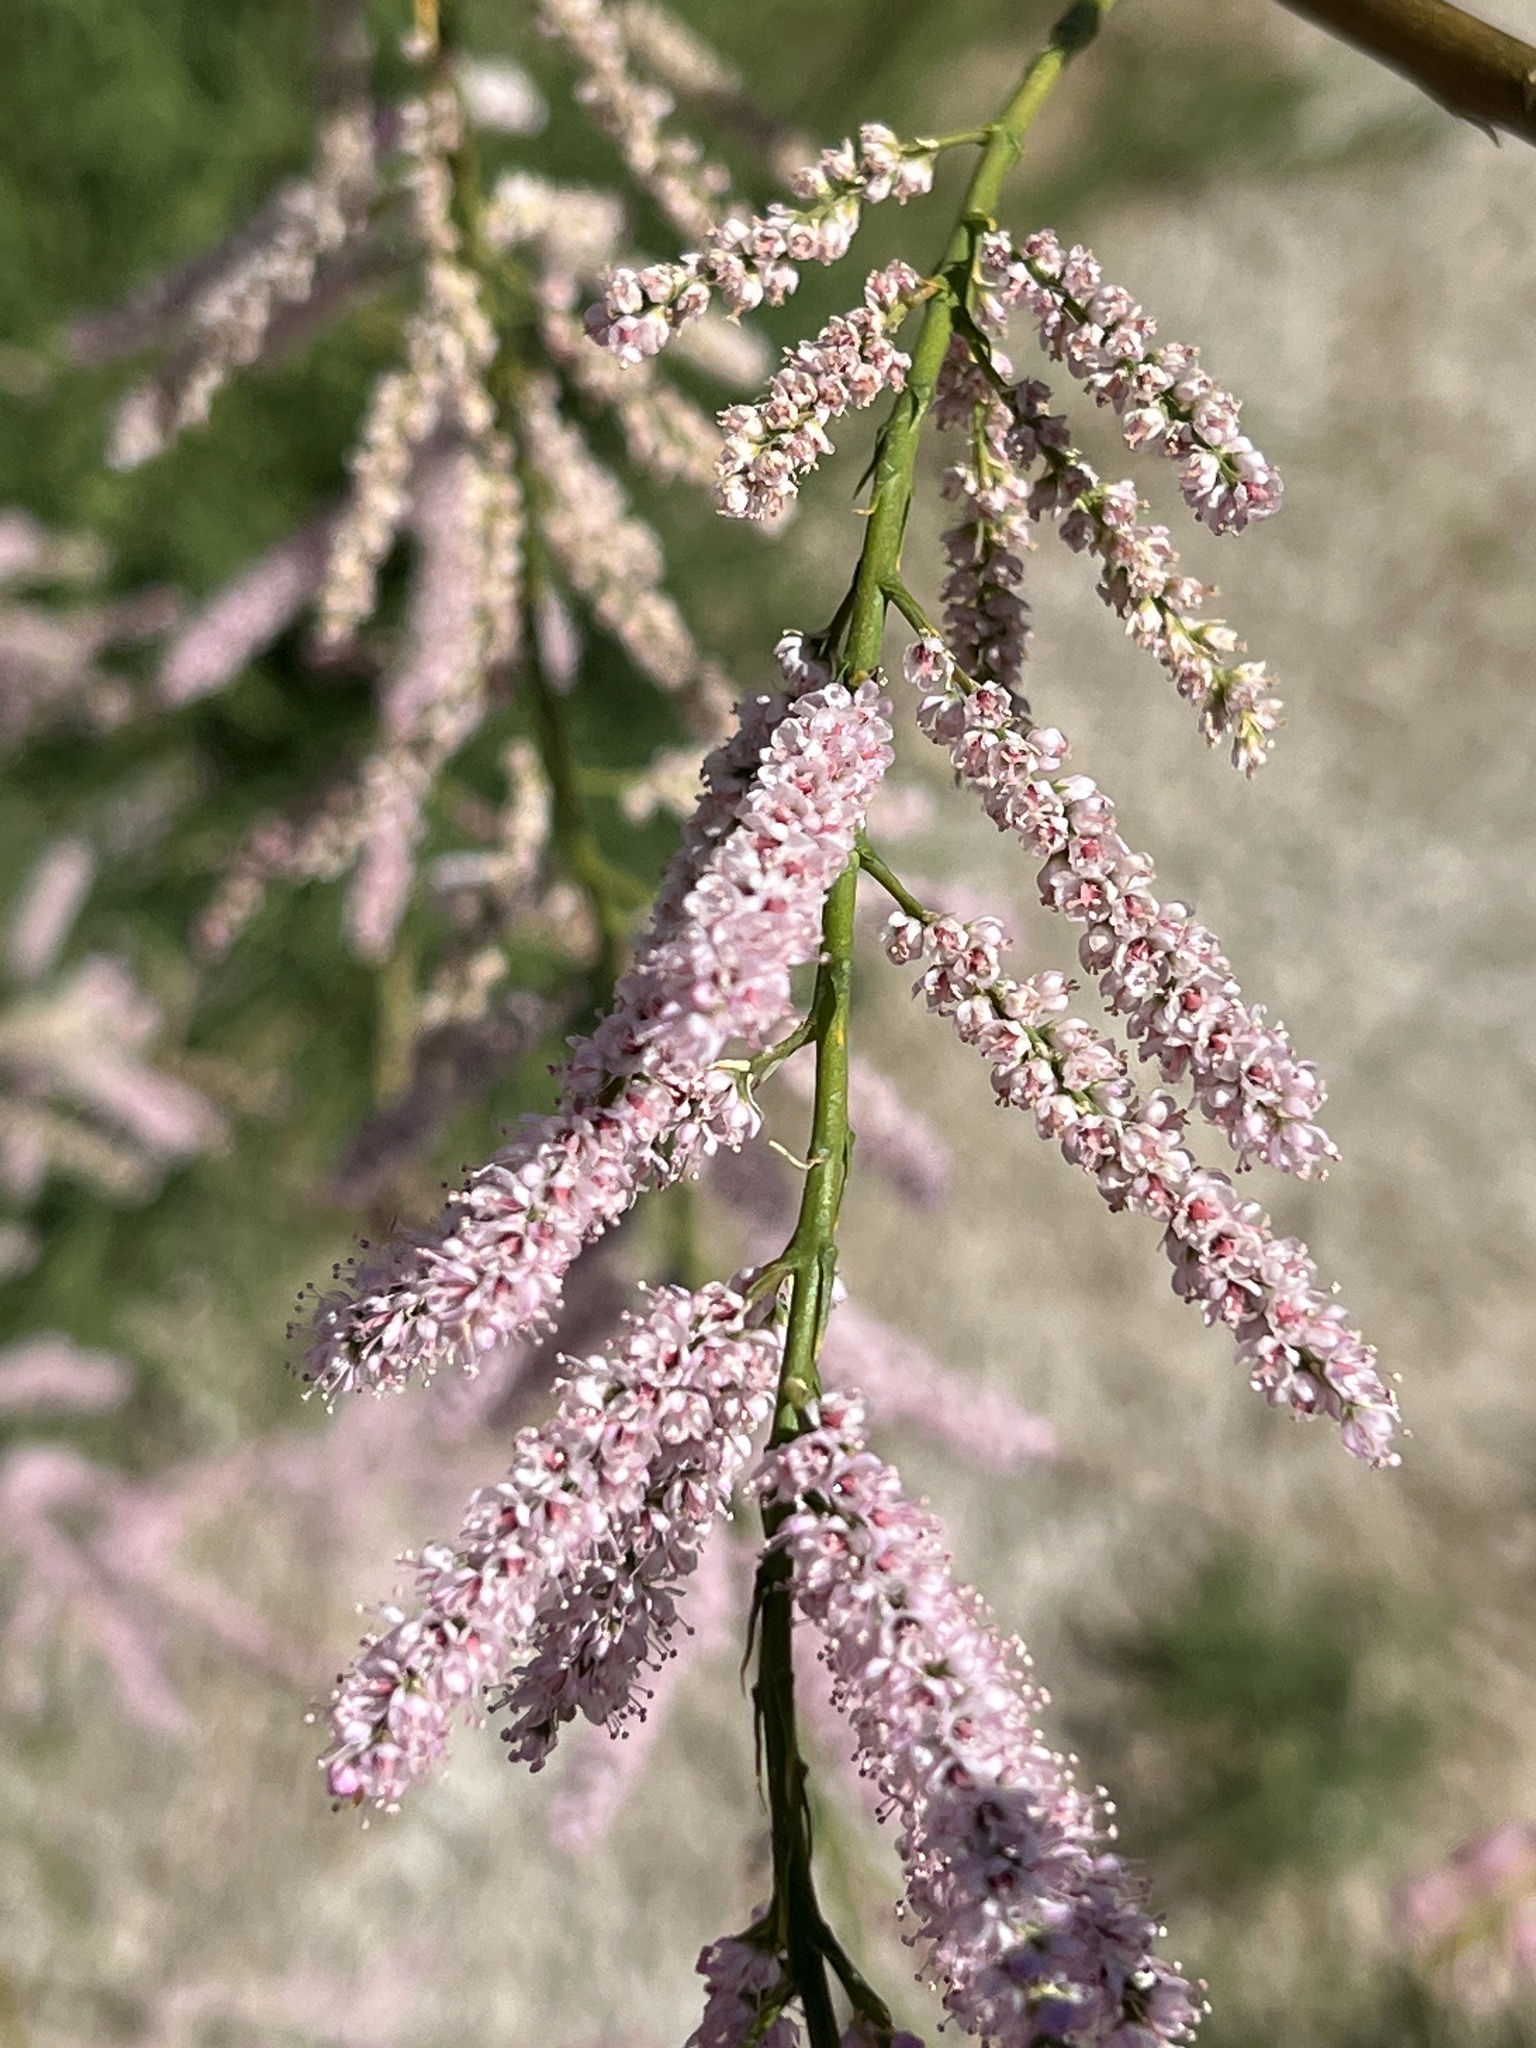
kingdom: Plantae
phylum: Tracheophyta
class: Magnoliopsida
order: Caryophyllales
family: Tamaricaceae
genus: Tamarix
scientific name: Tamarix
